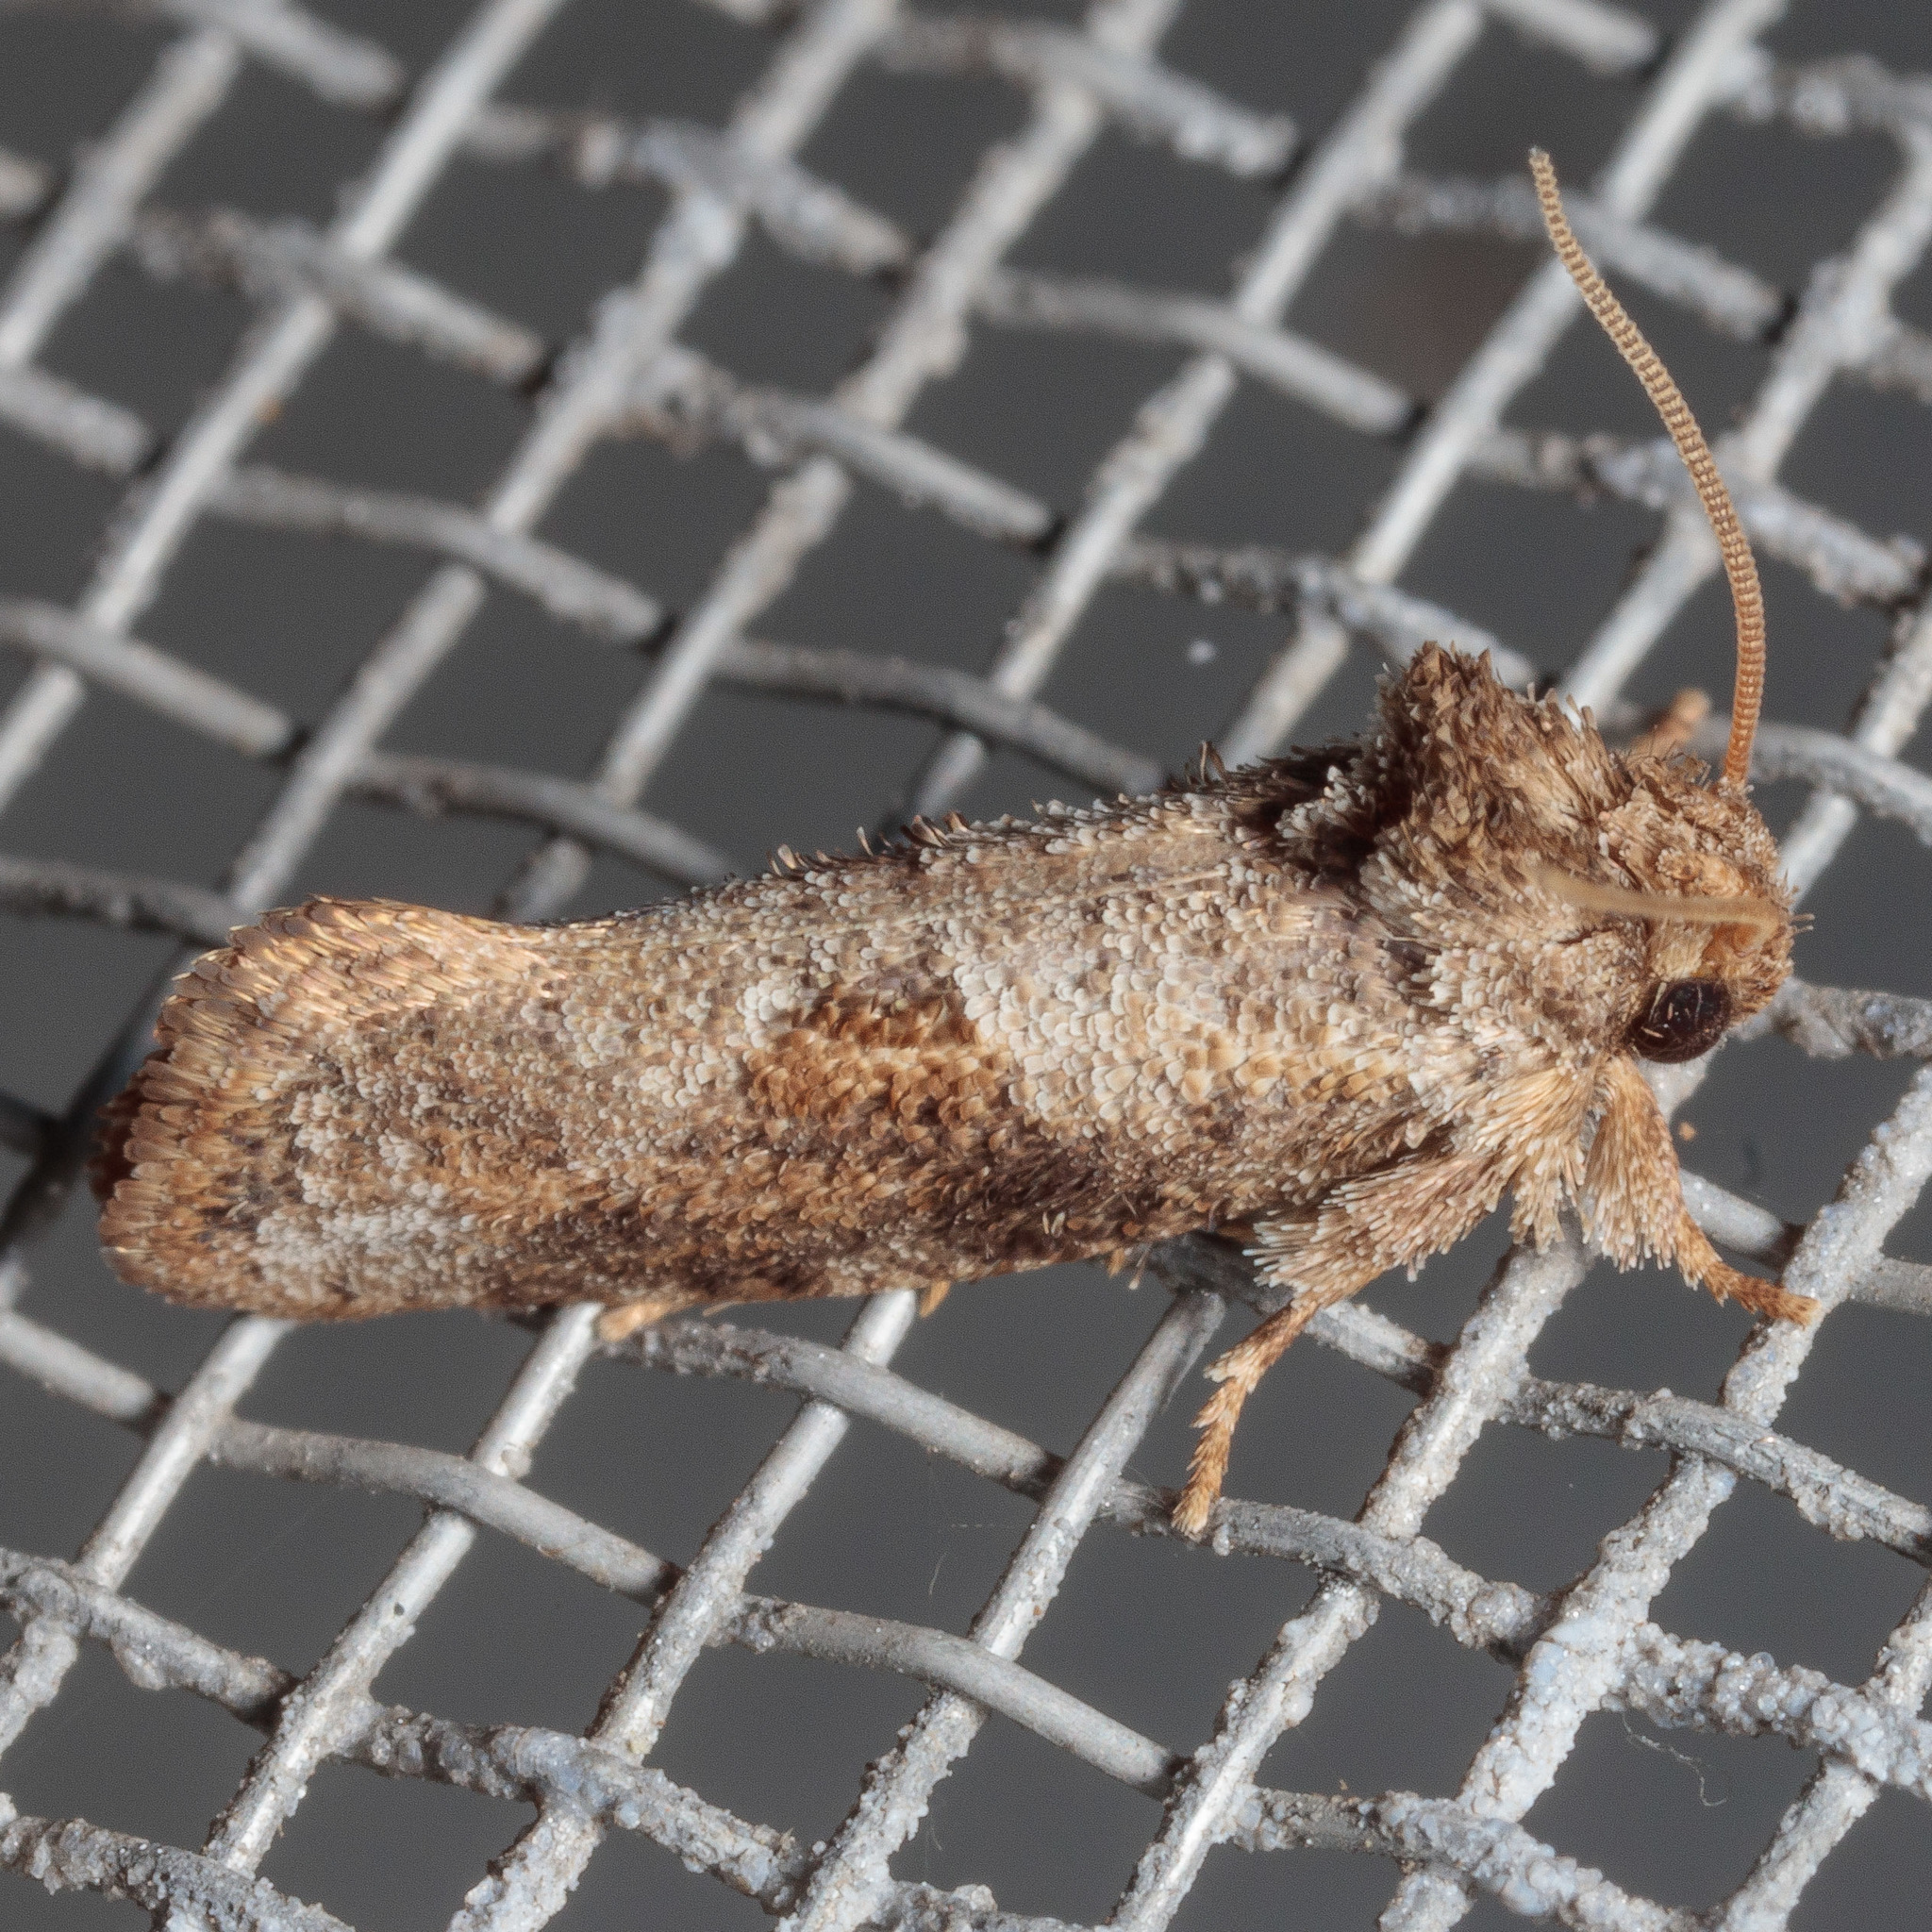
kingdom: Animalia
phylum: Arthropoda
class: Insecta
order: Lepidoptera
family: Tineidae
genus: Acrolophus
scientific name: Acrolophus piger
